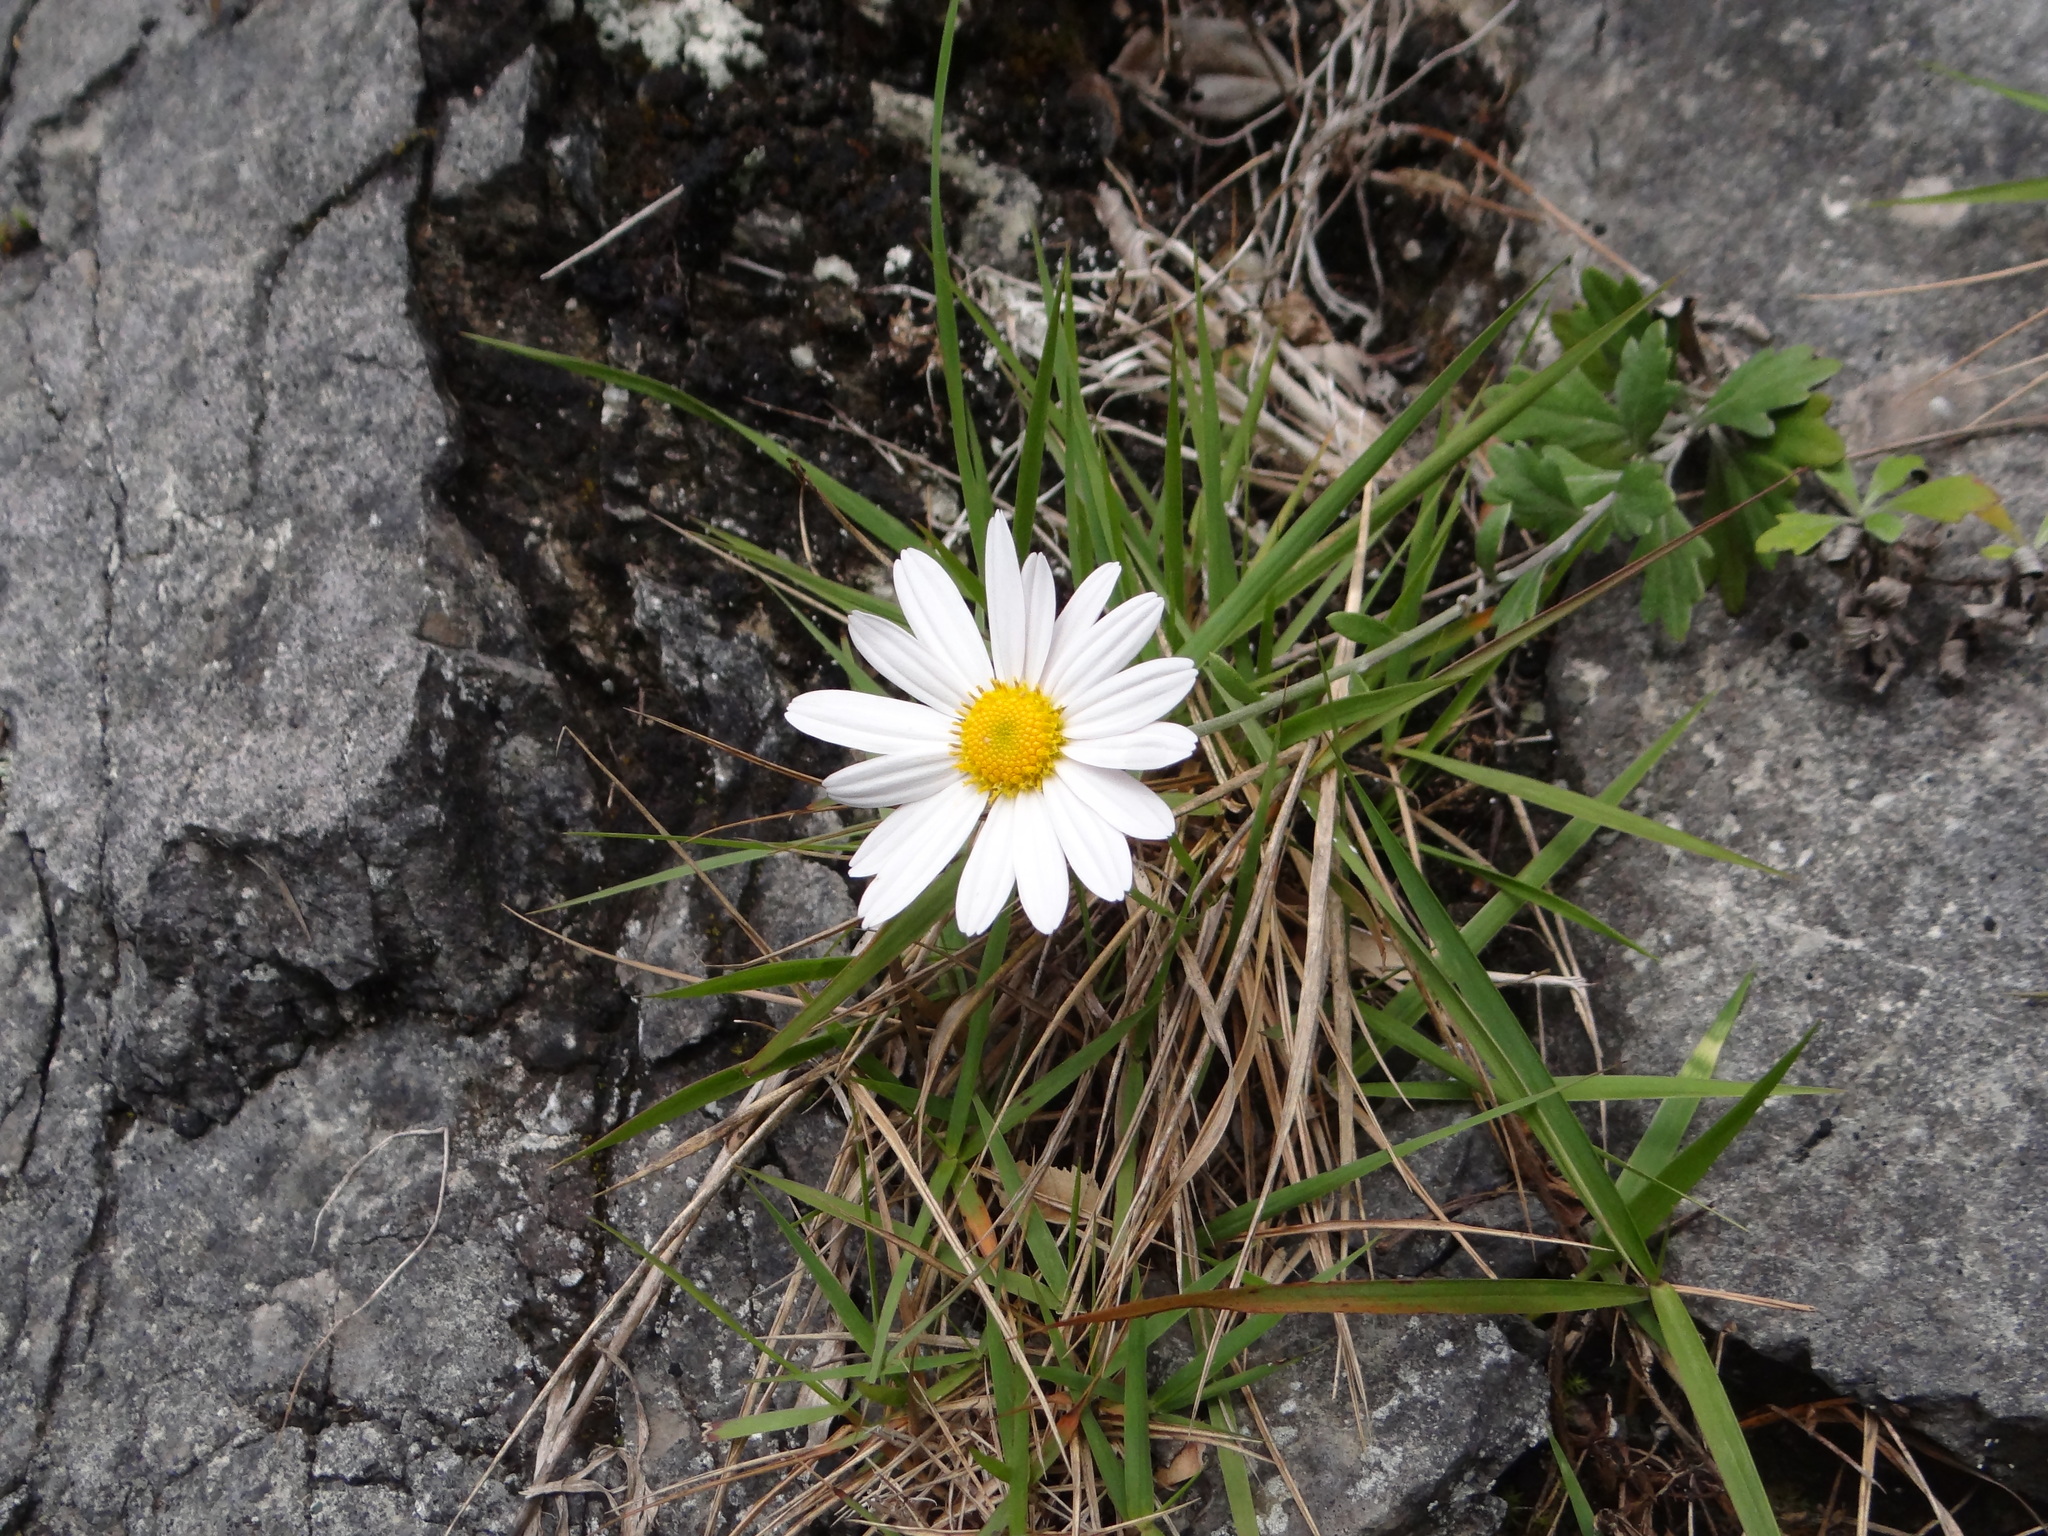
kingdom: Plantae
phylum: Tracheophyta
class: Magnoliopsida
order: Asterales
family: Asteraceae
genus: Chrysanthemum
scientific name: Chrysanthemum morii
